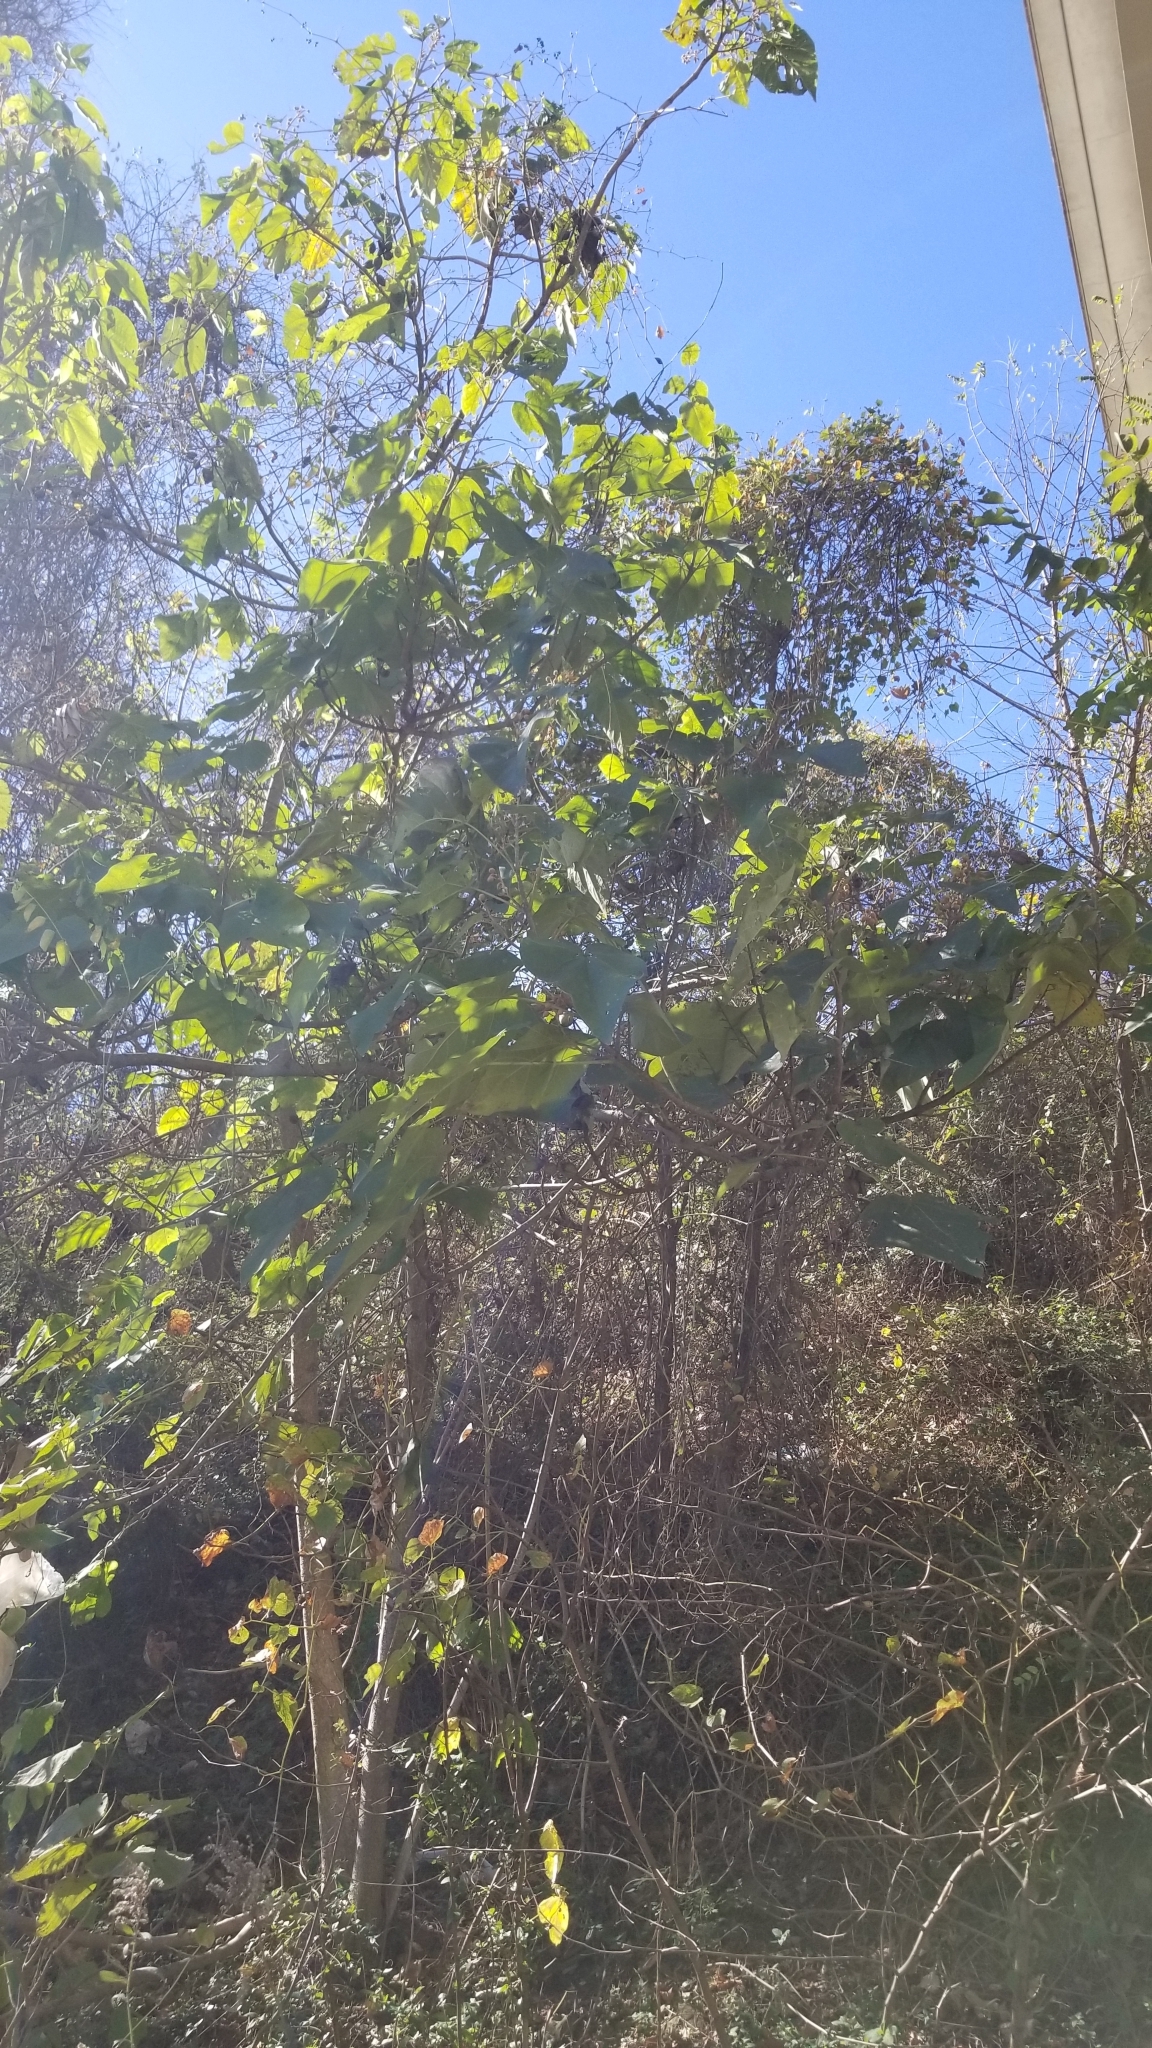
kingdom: Plantae
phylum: Tracheophyta
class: Magnoliopsida
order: Lamiales
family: Paulowniaceae
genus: Paulownia
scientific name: Paulownia tomentosa
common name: Foxglove-tree
